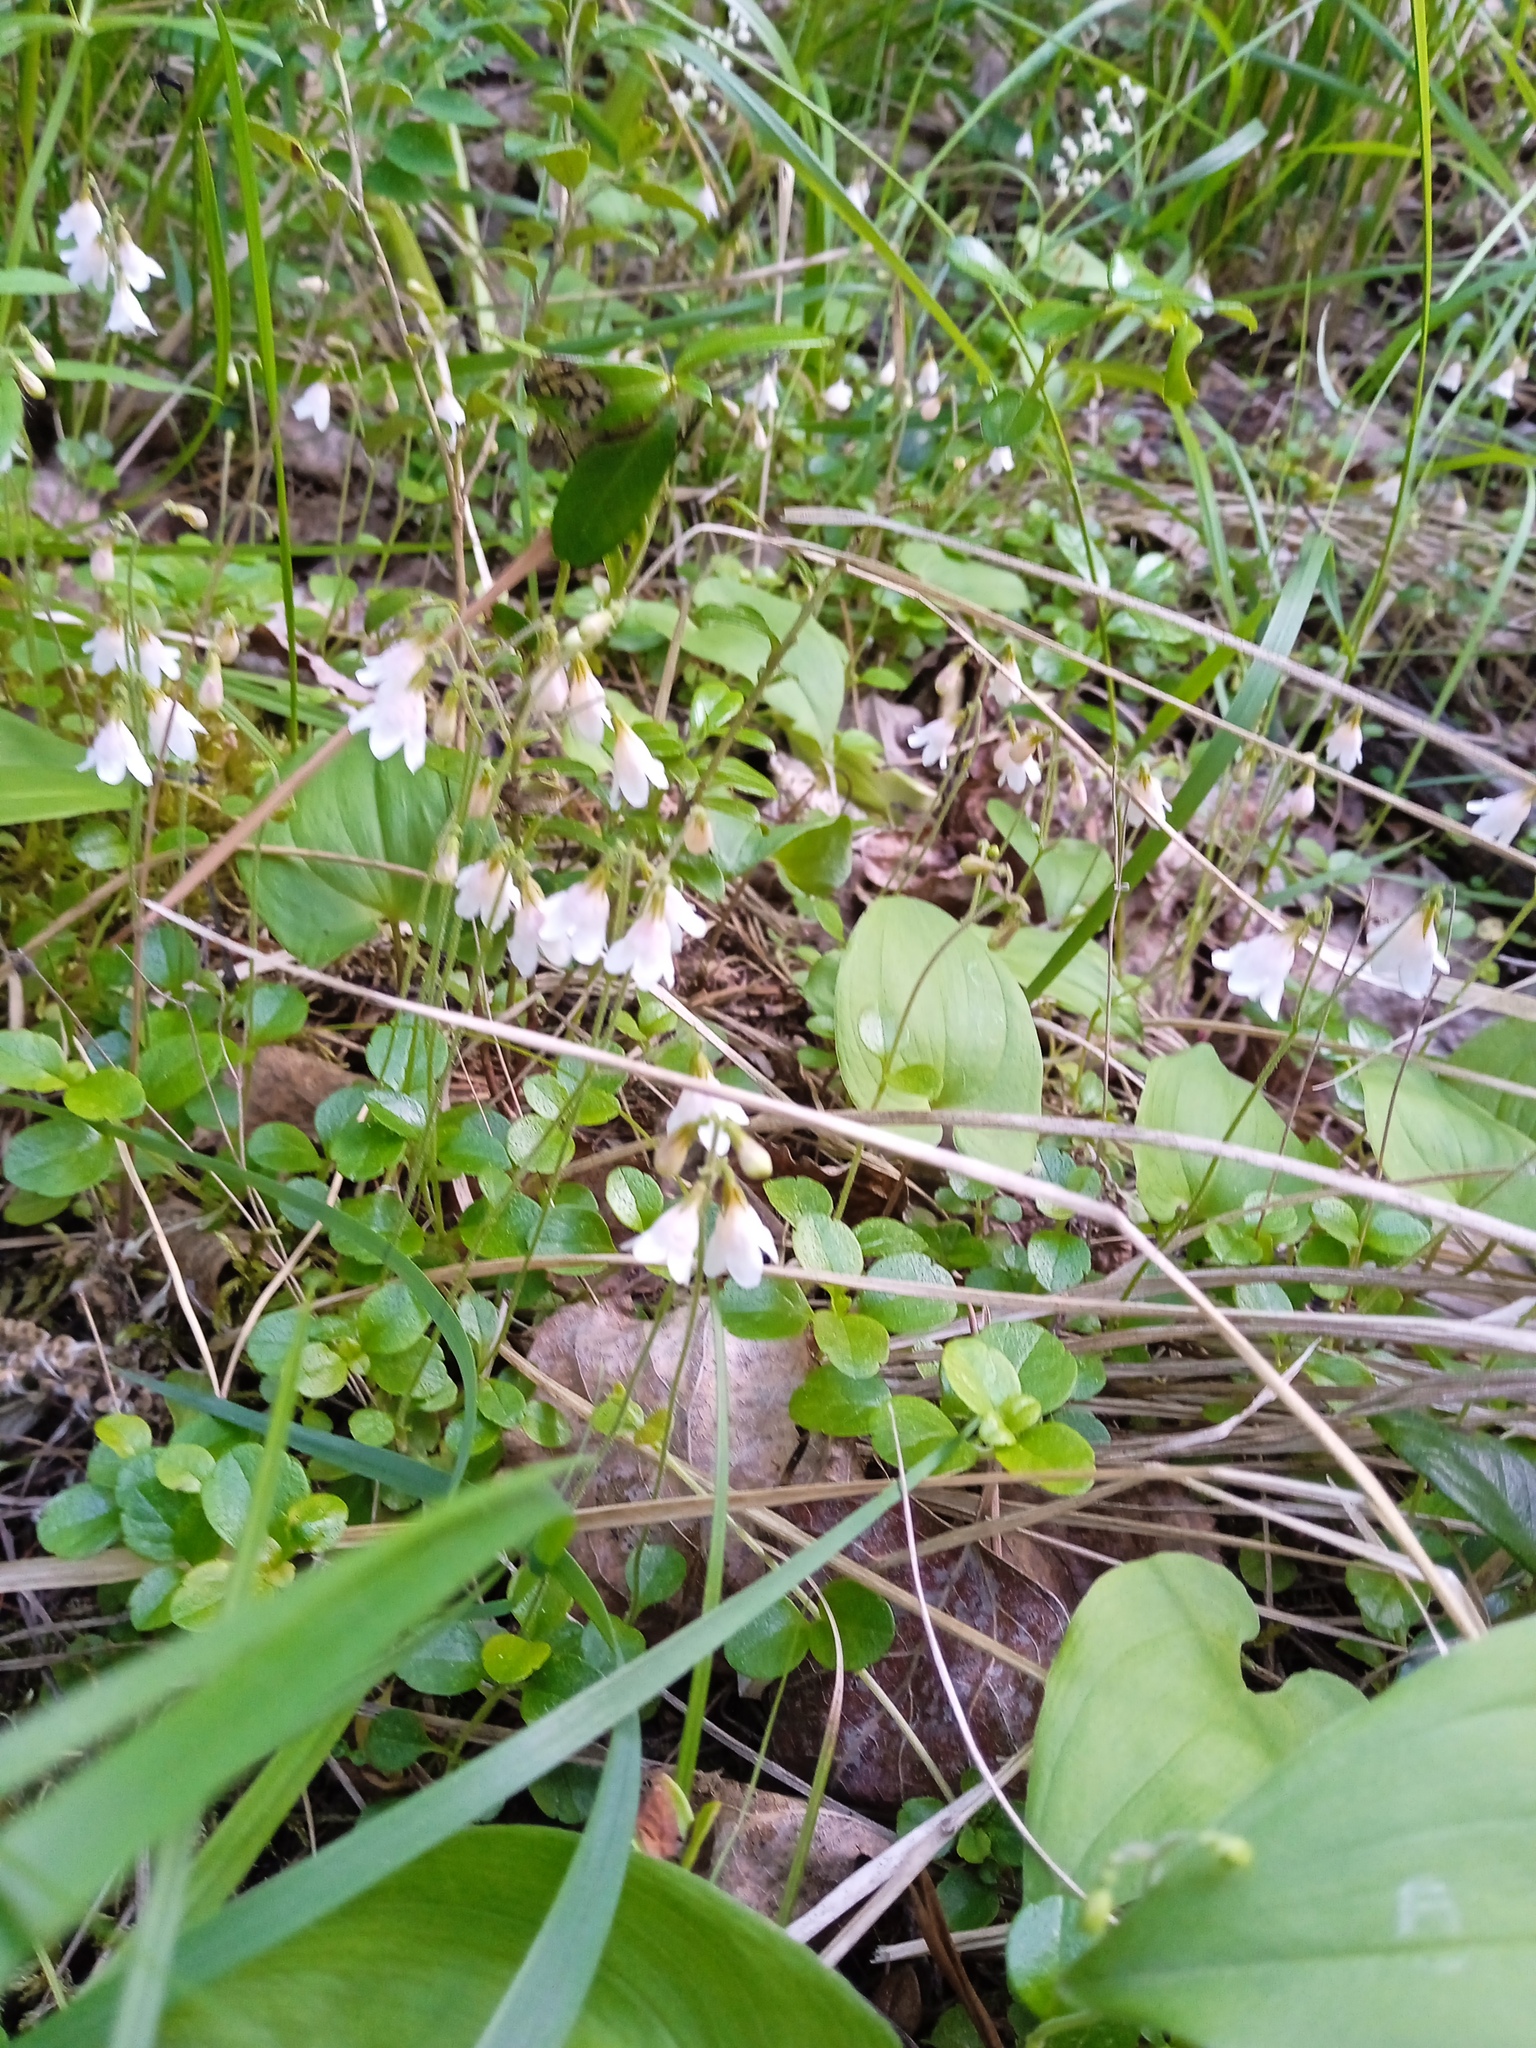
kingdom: Plantae
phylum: Tracheophyta
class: Magnoliopsida
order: Dipsacales
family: Caprifoliaceae
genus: Linnaea
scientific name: Linnaea borealis
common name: Twinflower
